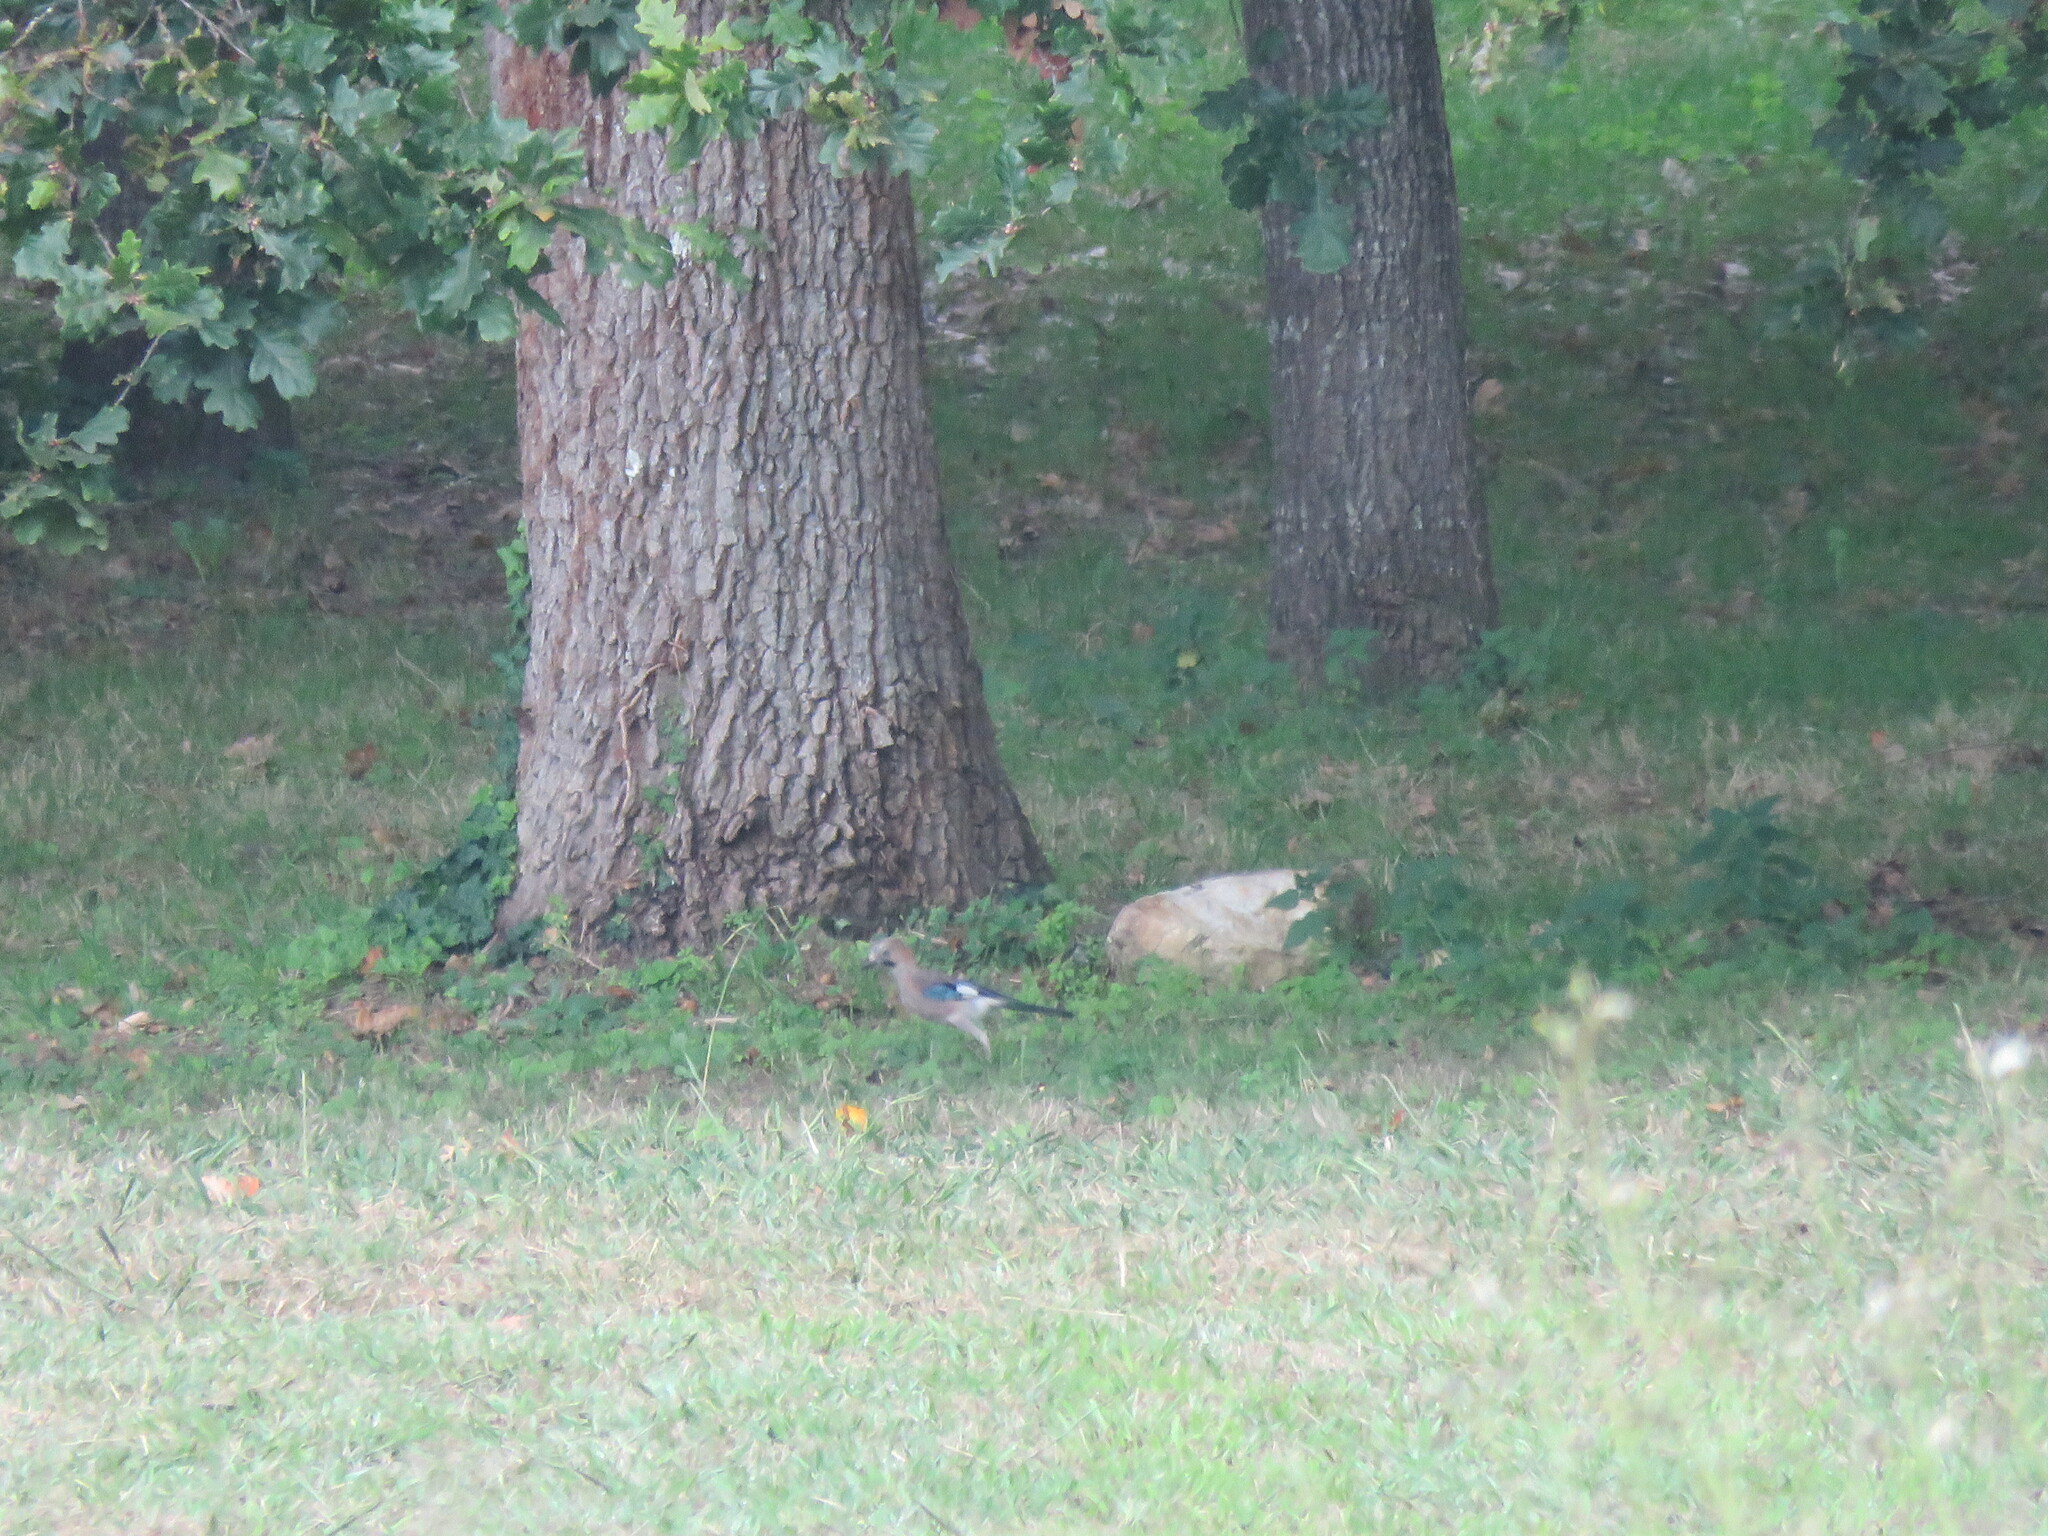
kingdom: Animalia
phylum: Chordata
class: Aves
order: Passeriformes
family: Corvidae
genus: Garrulus
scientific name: Garrulus glandarius
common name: Eurasian jay
